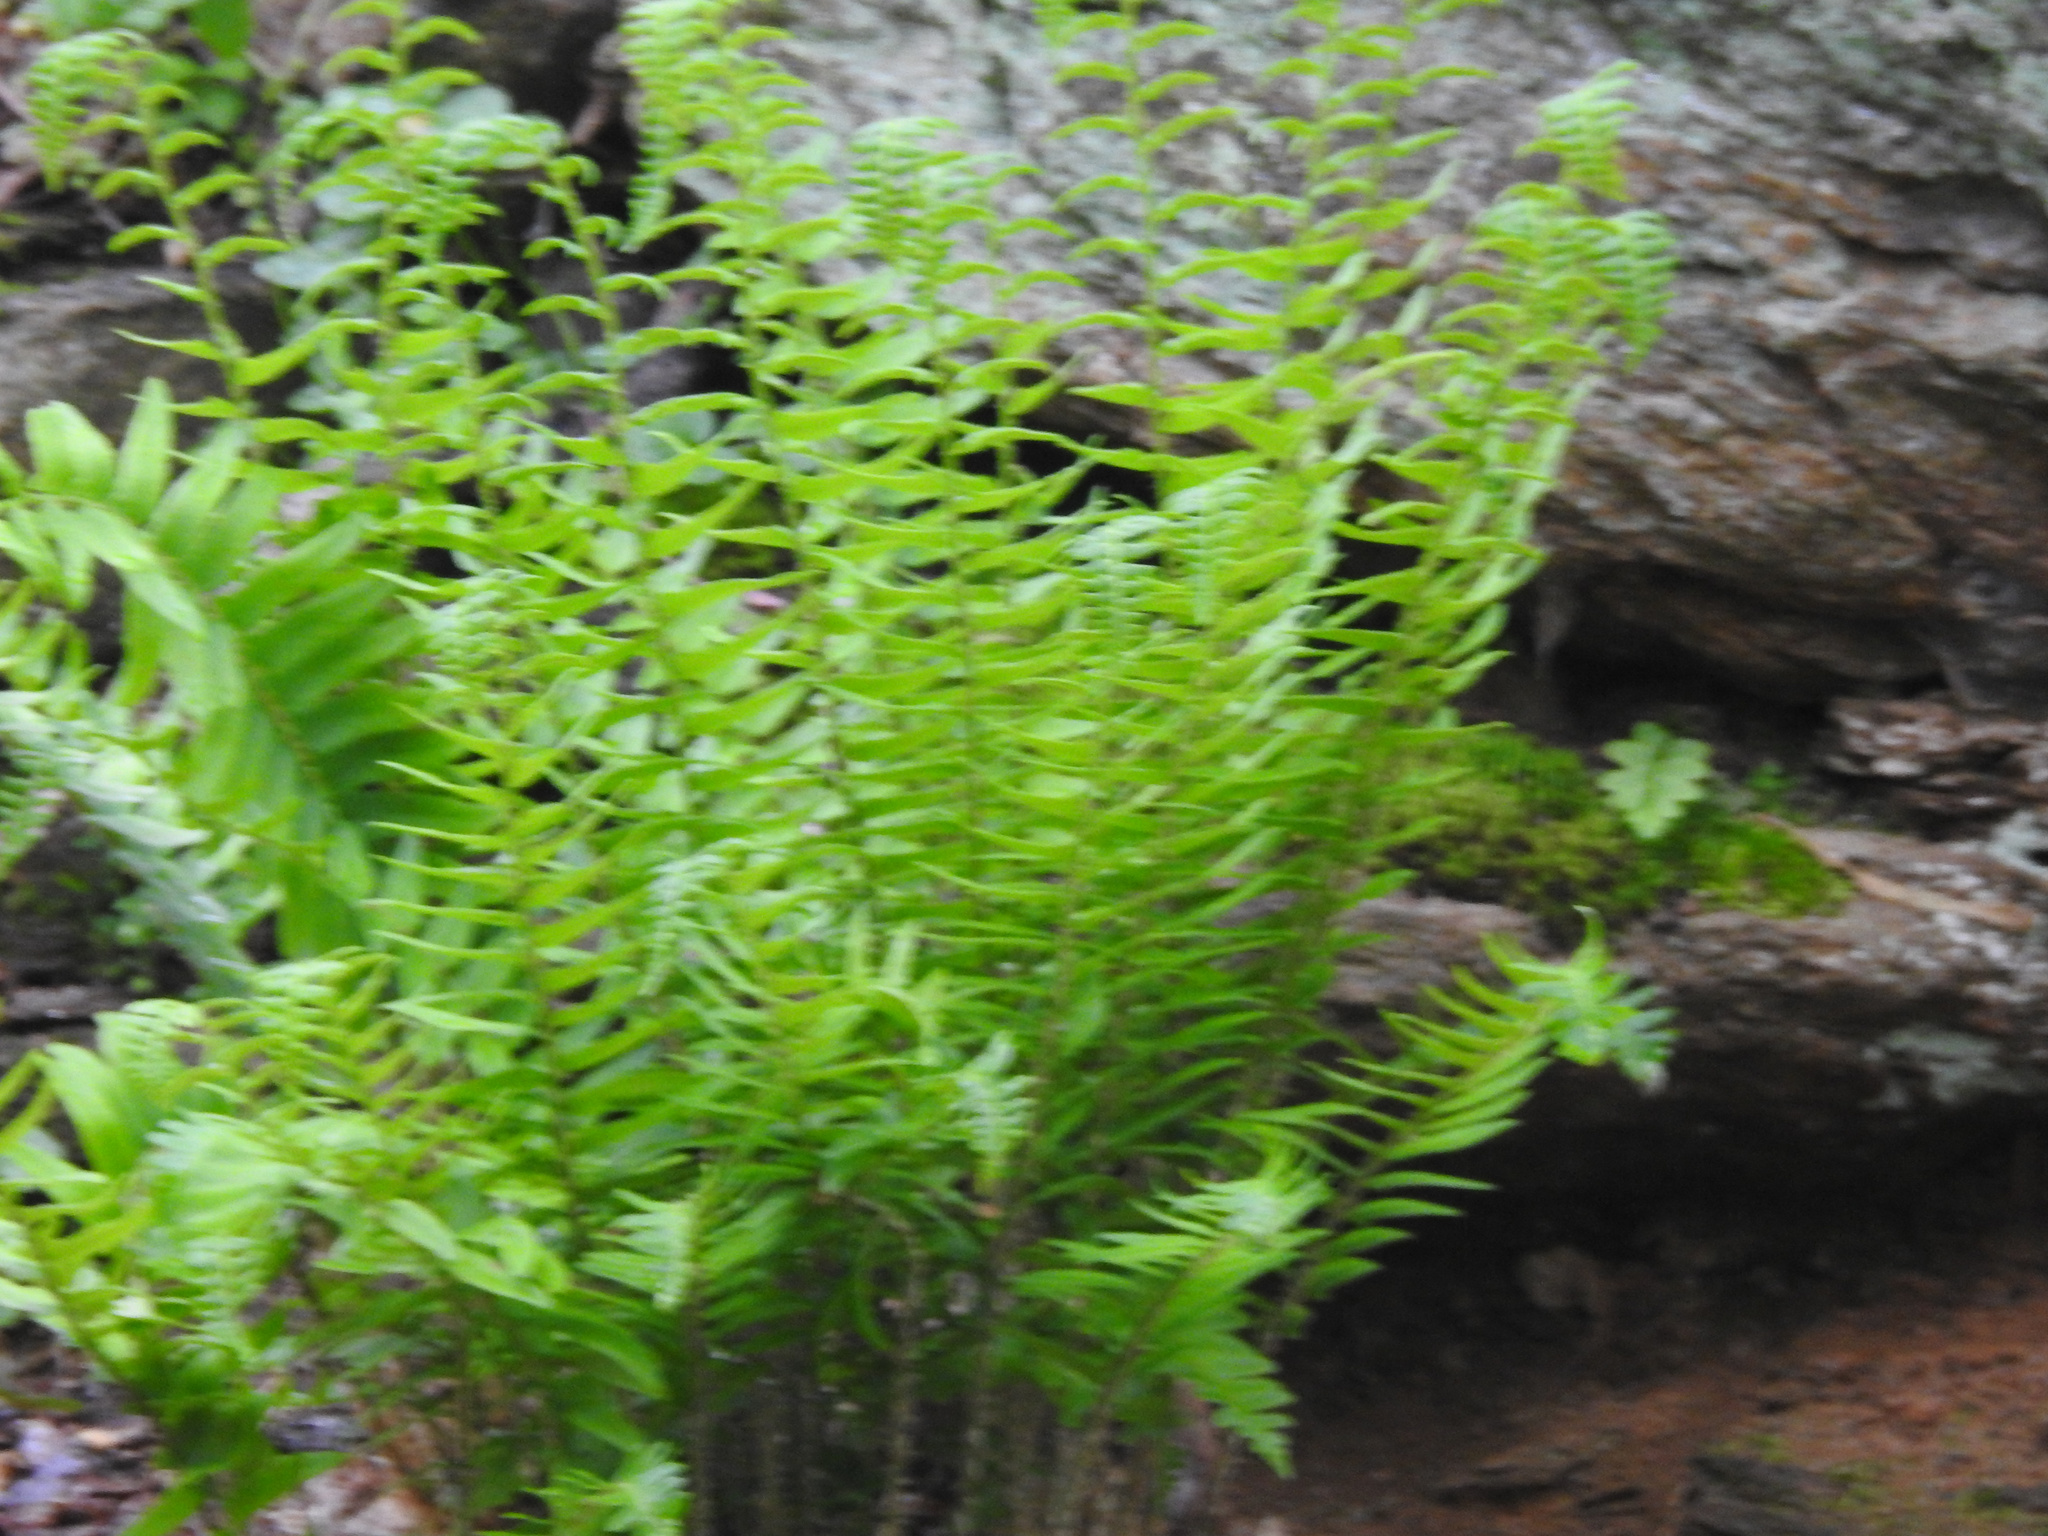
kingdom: Plantae
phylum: Tracheophyta
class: Polypodiopsida
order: Polypodiales
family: Dryopteridaceae
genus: Polystichum
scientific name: Polystichum acrostichoides
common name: Christmas fern
